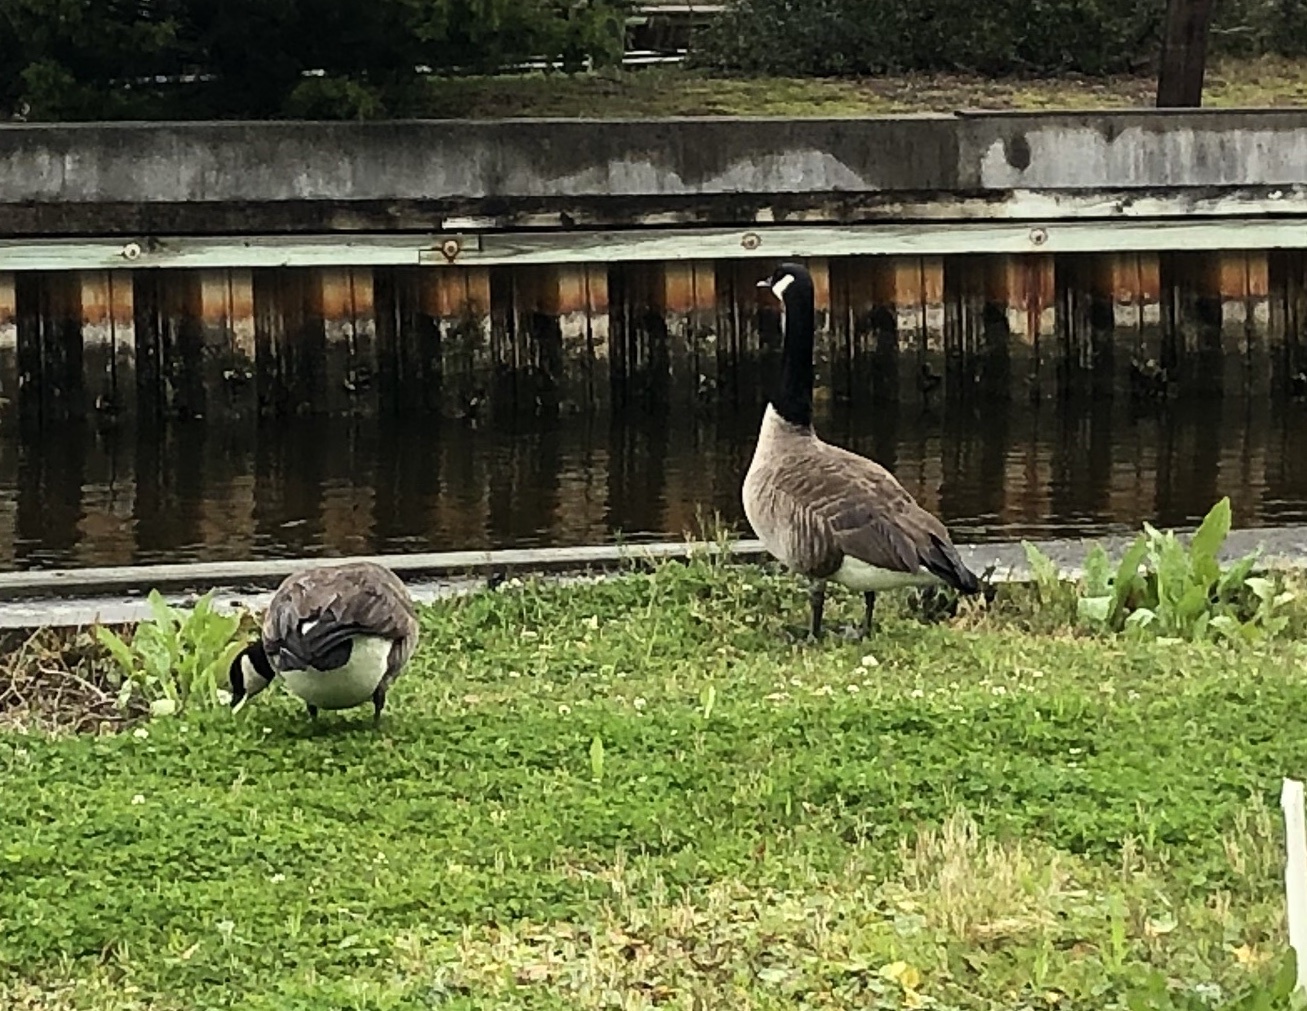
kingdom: Animalia
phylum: Chordata
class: Aves
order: Anseriformes
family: Anatidae
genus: Branta
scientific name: Branta canadensis
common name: Canada goose
